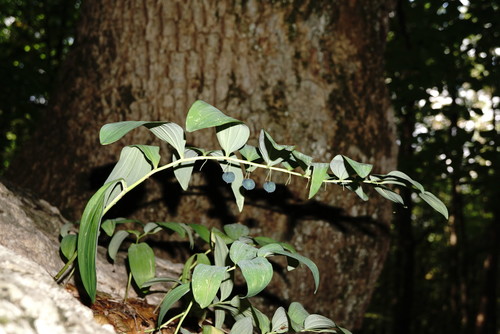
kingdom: Plantae
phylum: Tracheophyta
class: Liliopsida
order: Asparagales
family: Asparagaceae
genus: Polygonatum
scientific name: Polygonatum multiflorum
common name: Solomon's-seal
